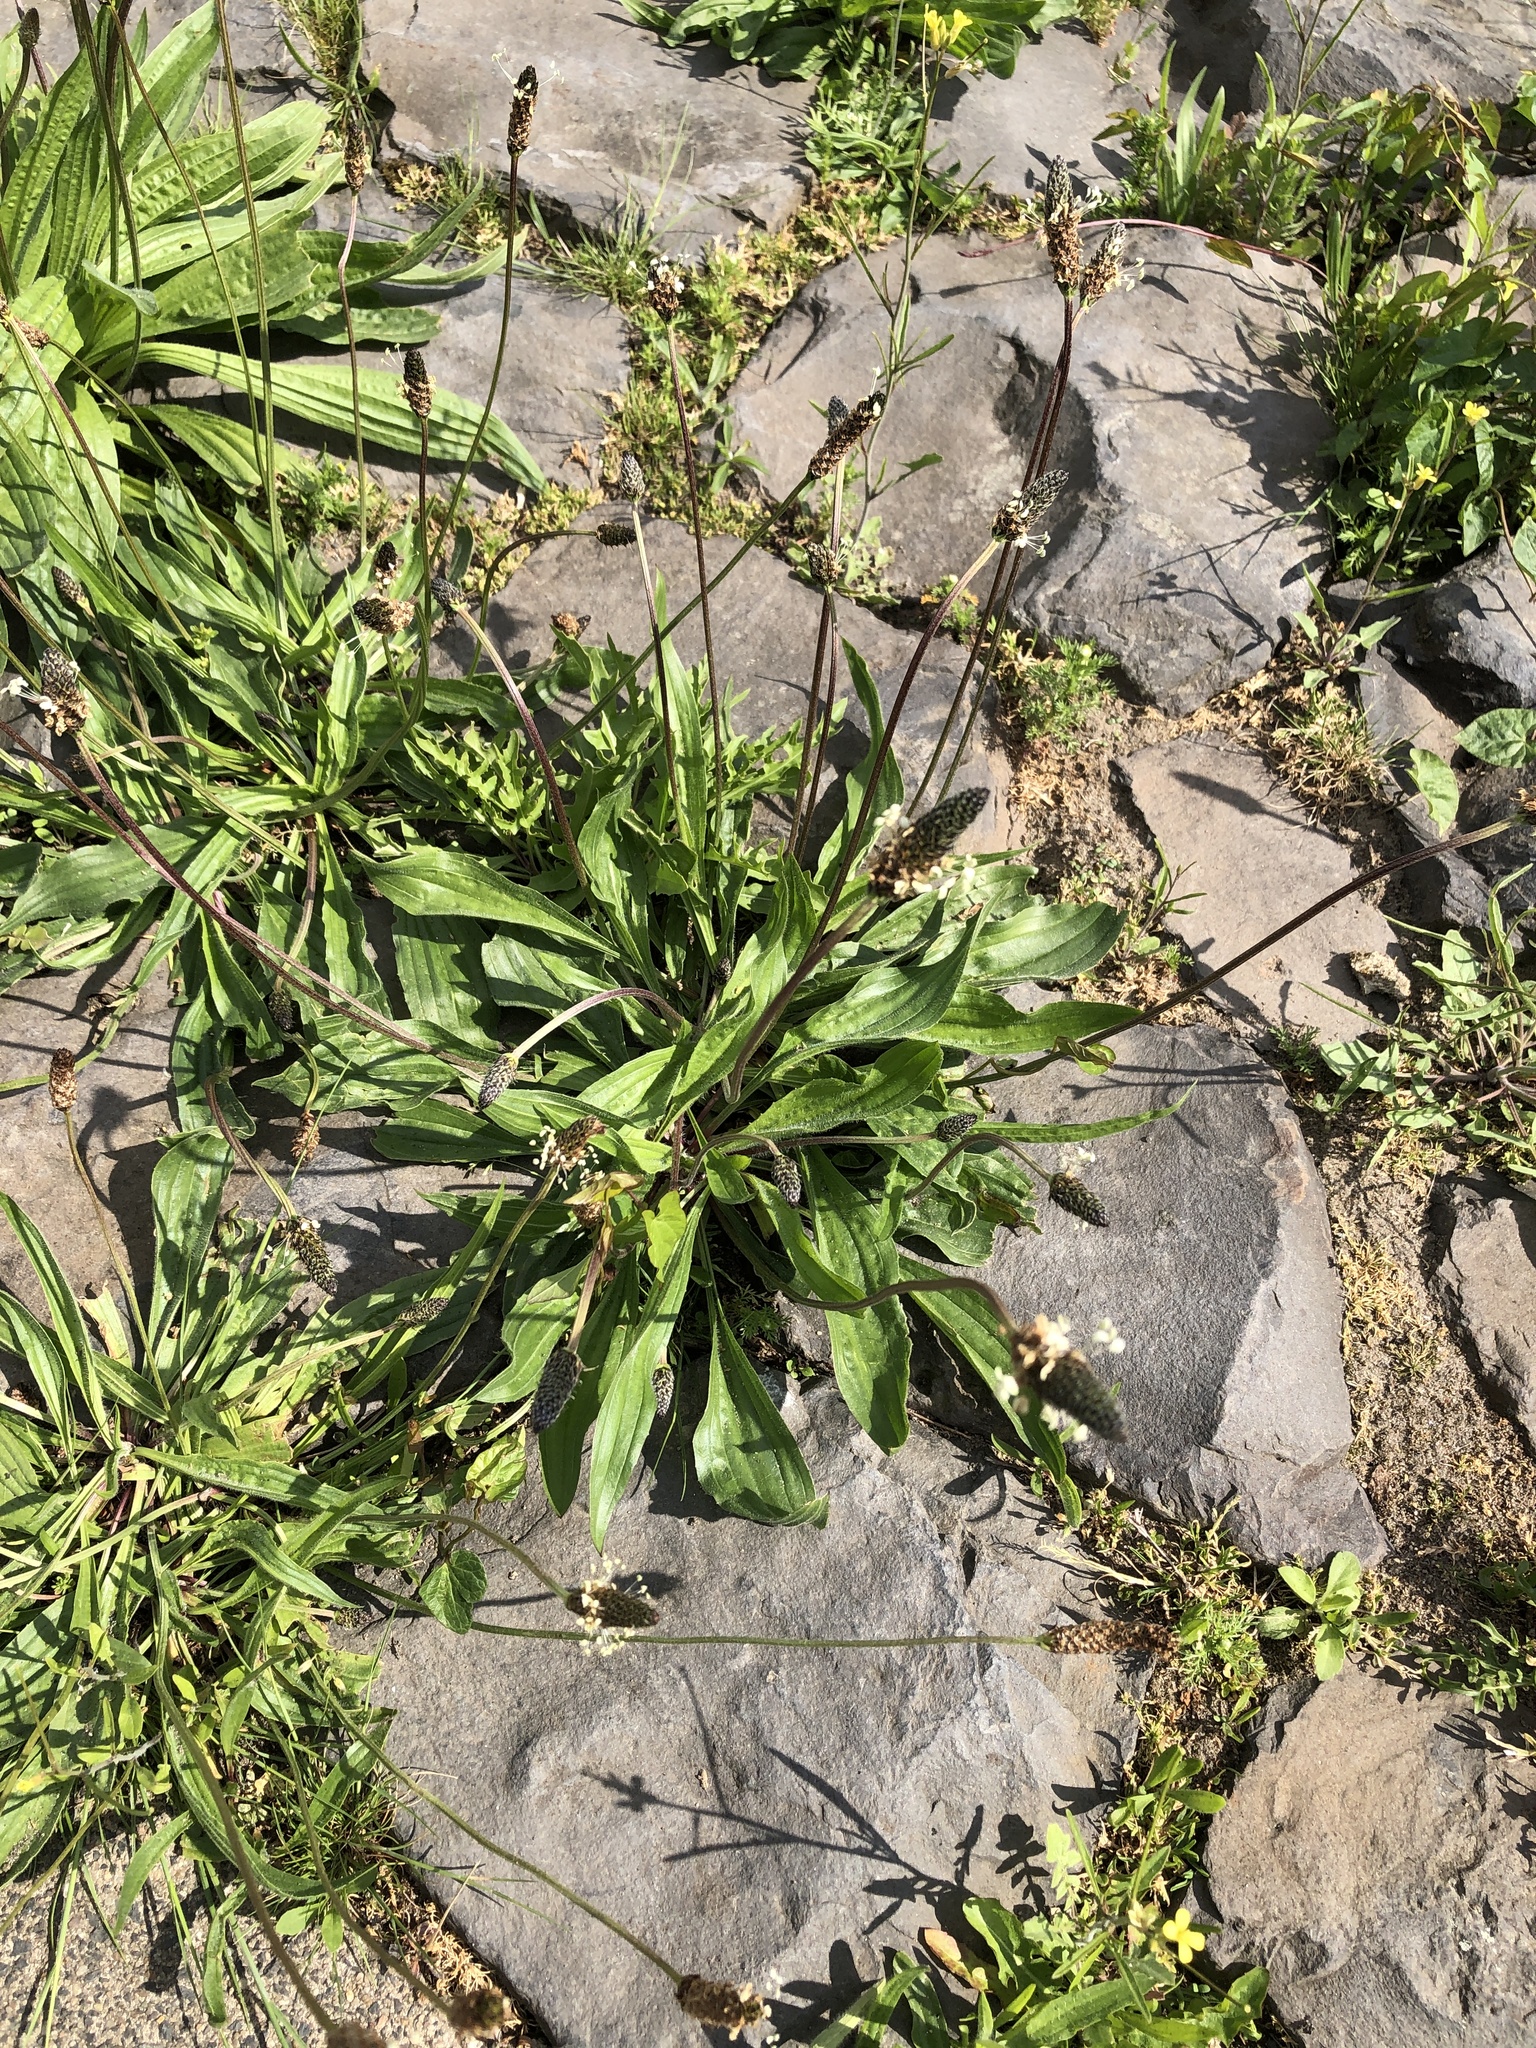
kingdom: Plantae
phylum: Tracheophyta
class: Magnoliopsida
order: Lamiales
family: Plantaginaceae
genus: Plantago
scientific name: Plantago lanceolata
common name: Ribwort plantain
